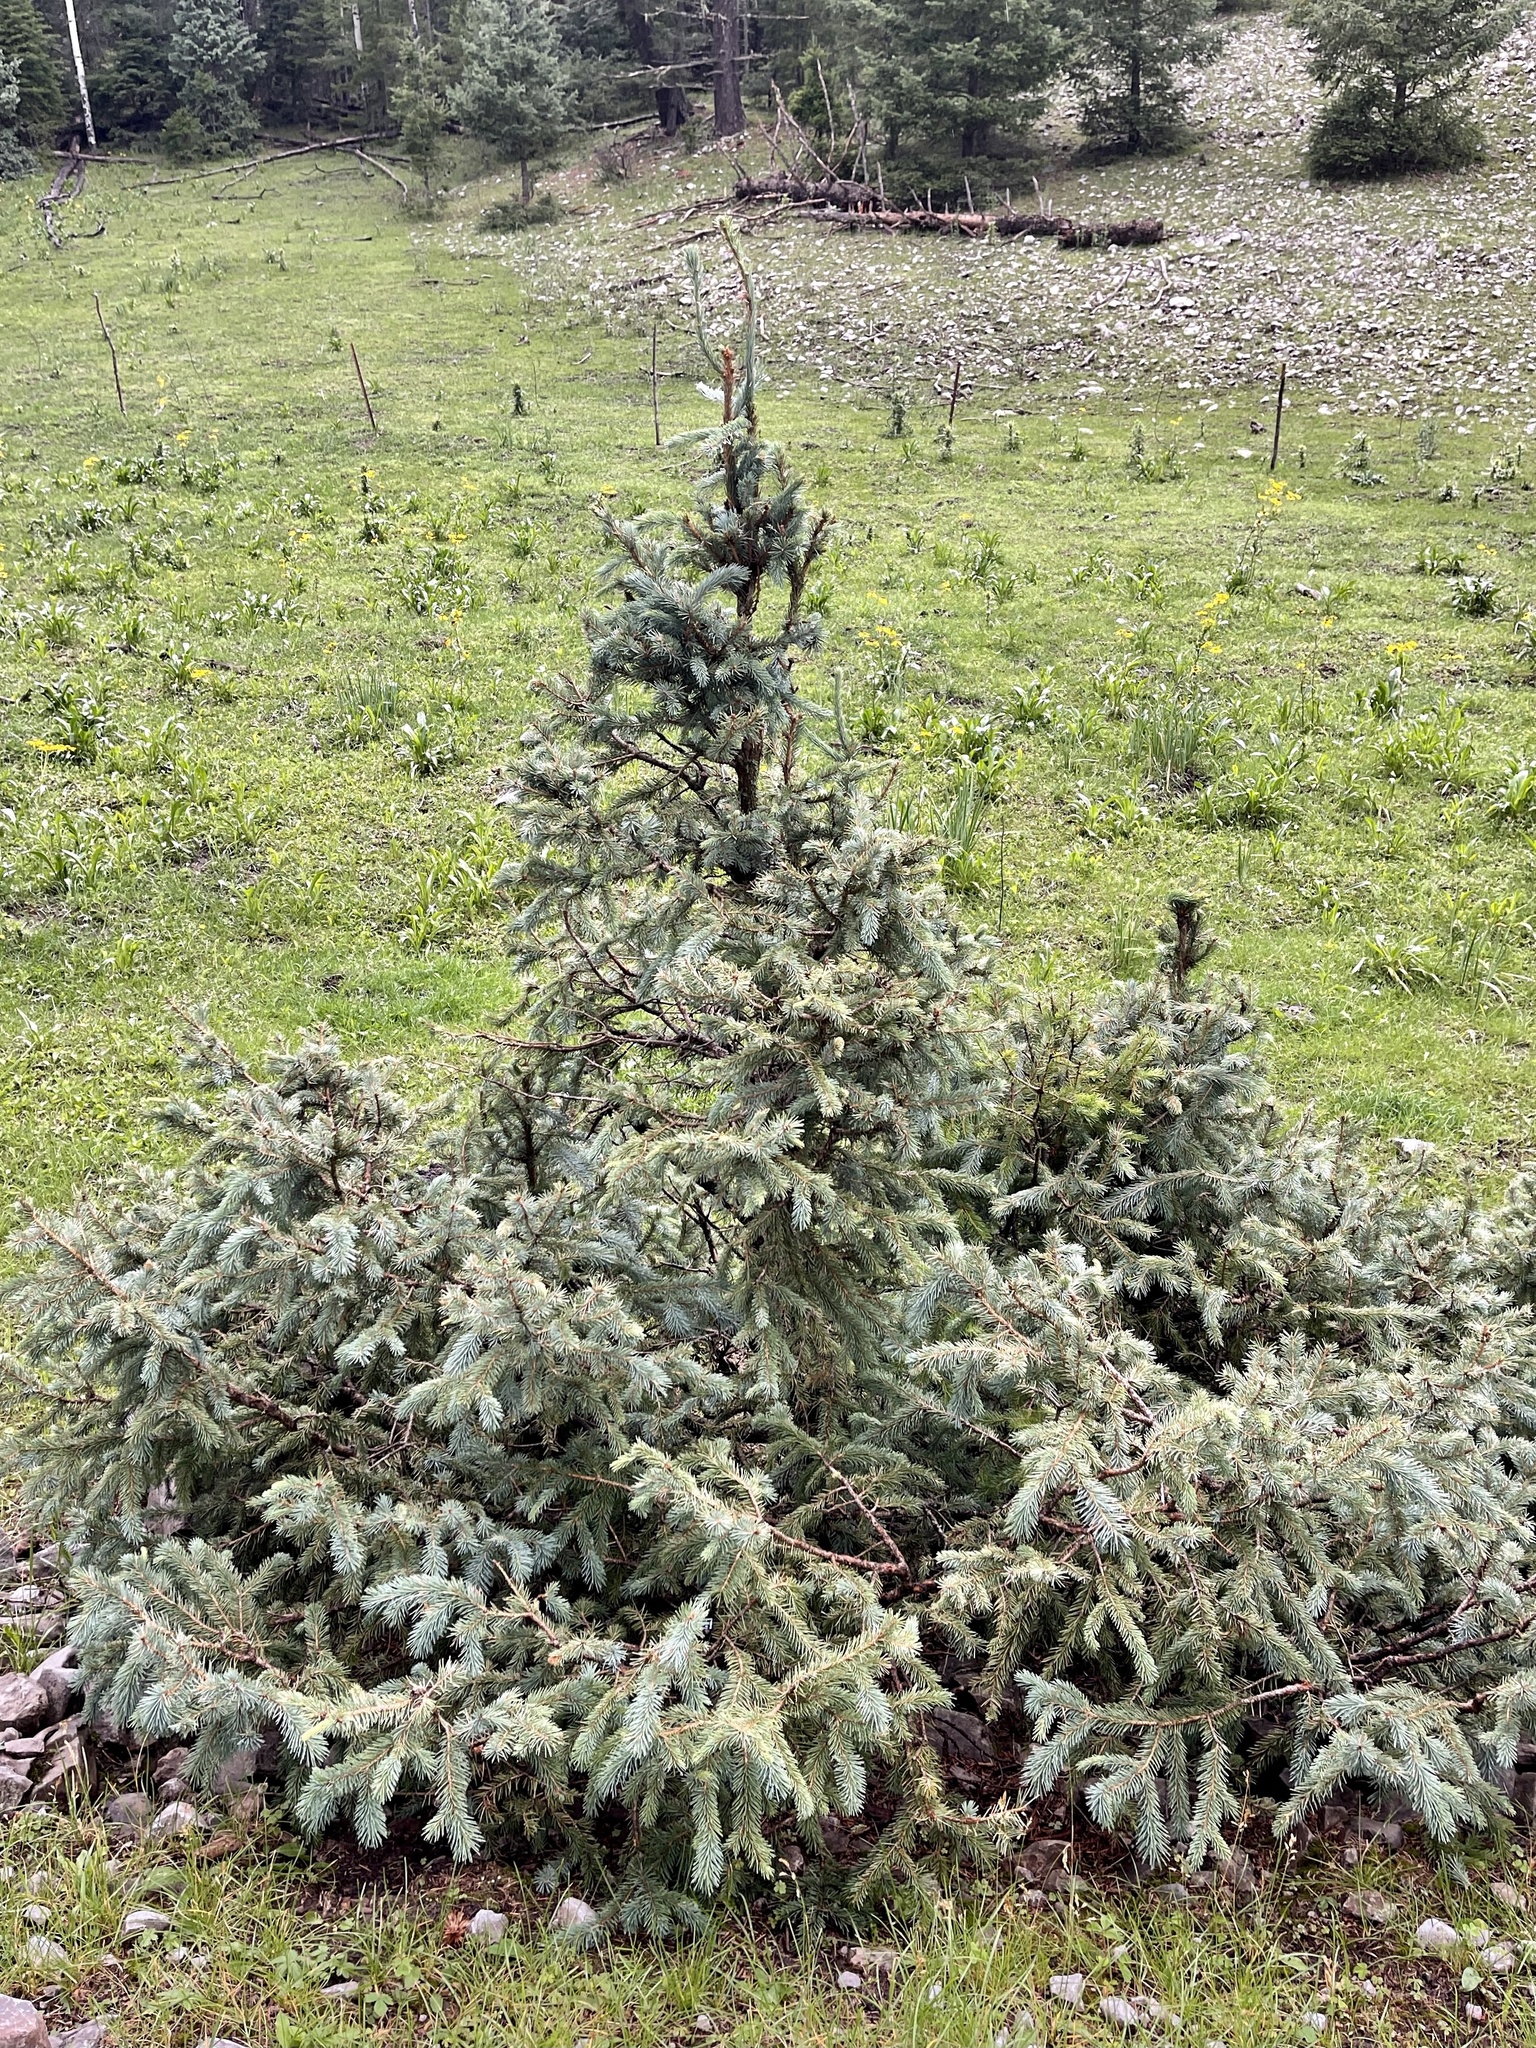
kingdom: Plantae
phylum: Tracheophyta
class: Pinopsida
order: Pinales
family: Pinaceae
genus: Picea
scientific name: Picea engelmannii
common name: Engelmann spruce
